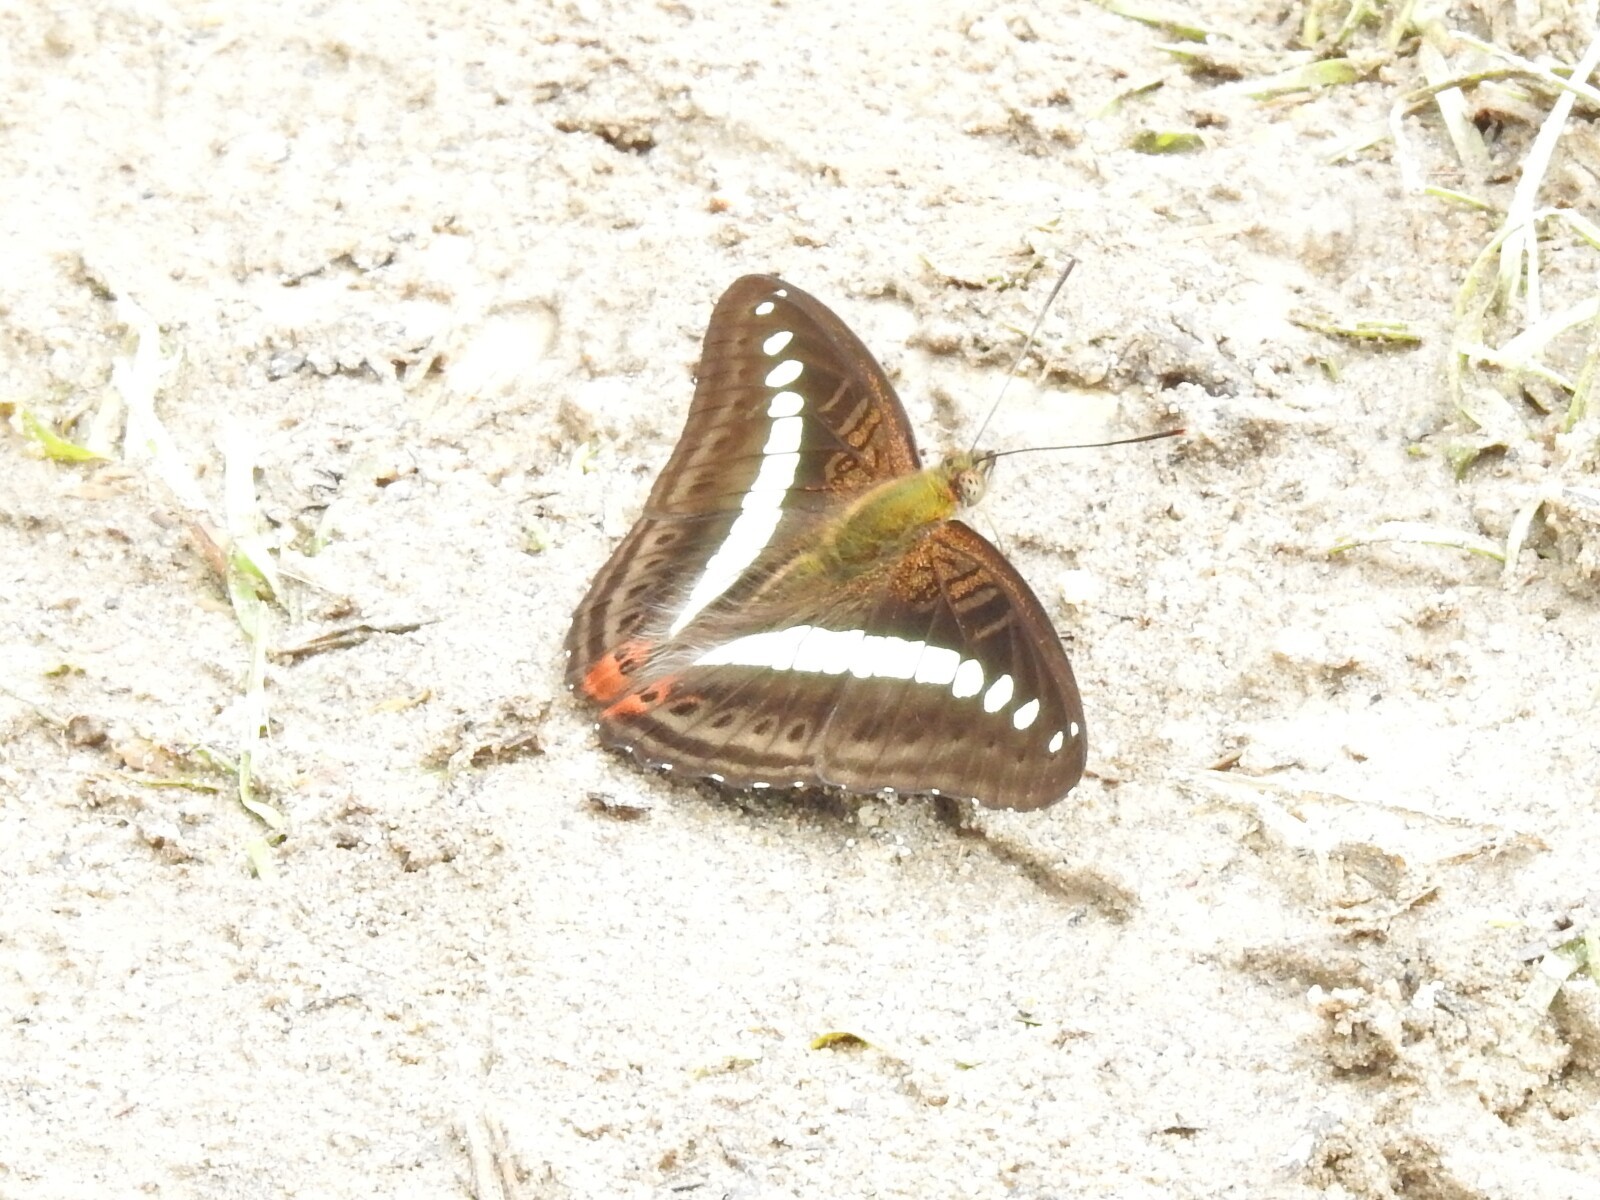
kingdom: Animalia
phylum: Arthropoda
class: Insecta
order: Lepidoptera
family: Nymphalidae
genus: Limenitis
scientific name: Limenitis Sumalia daraxa
